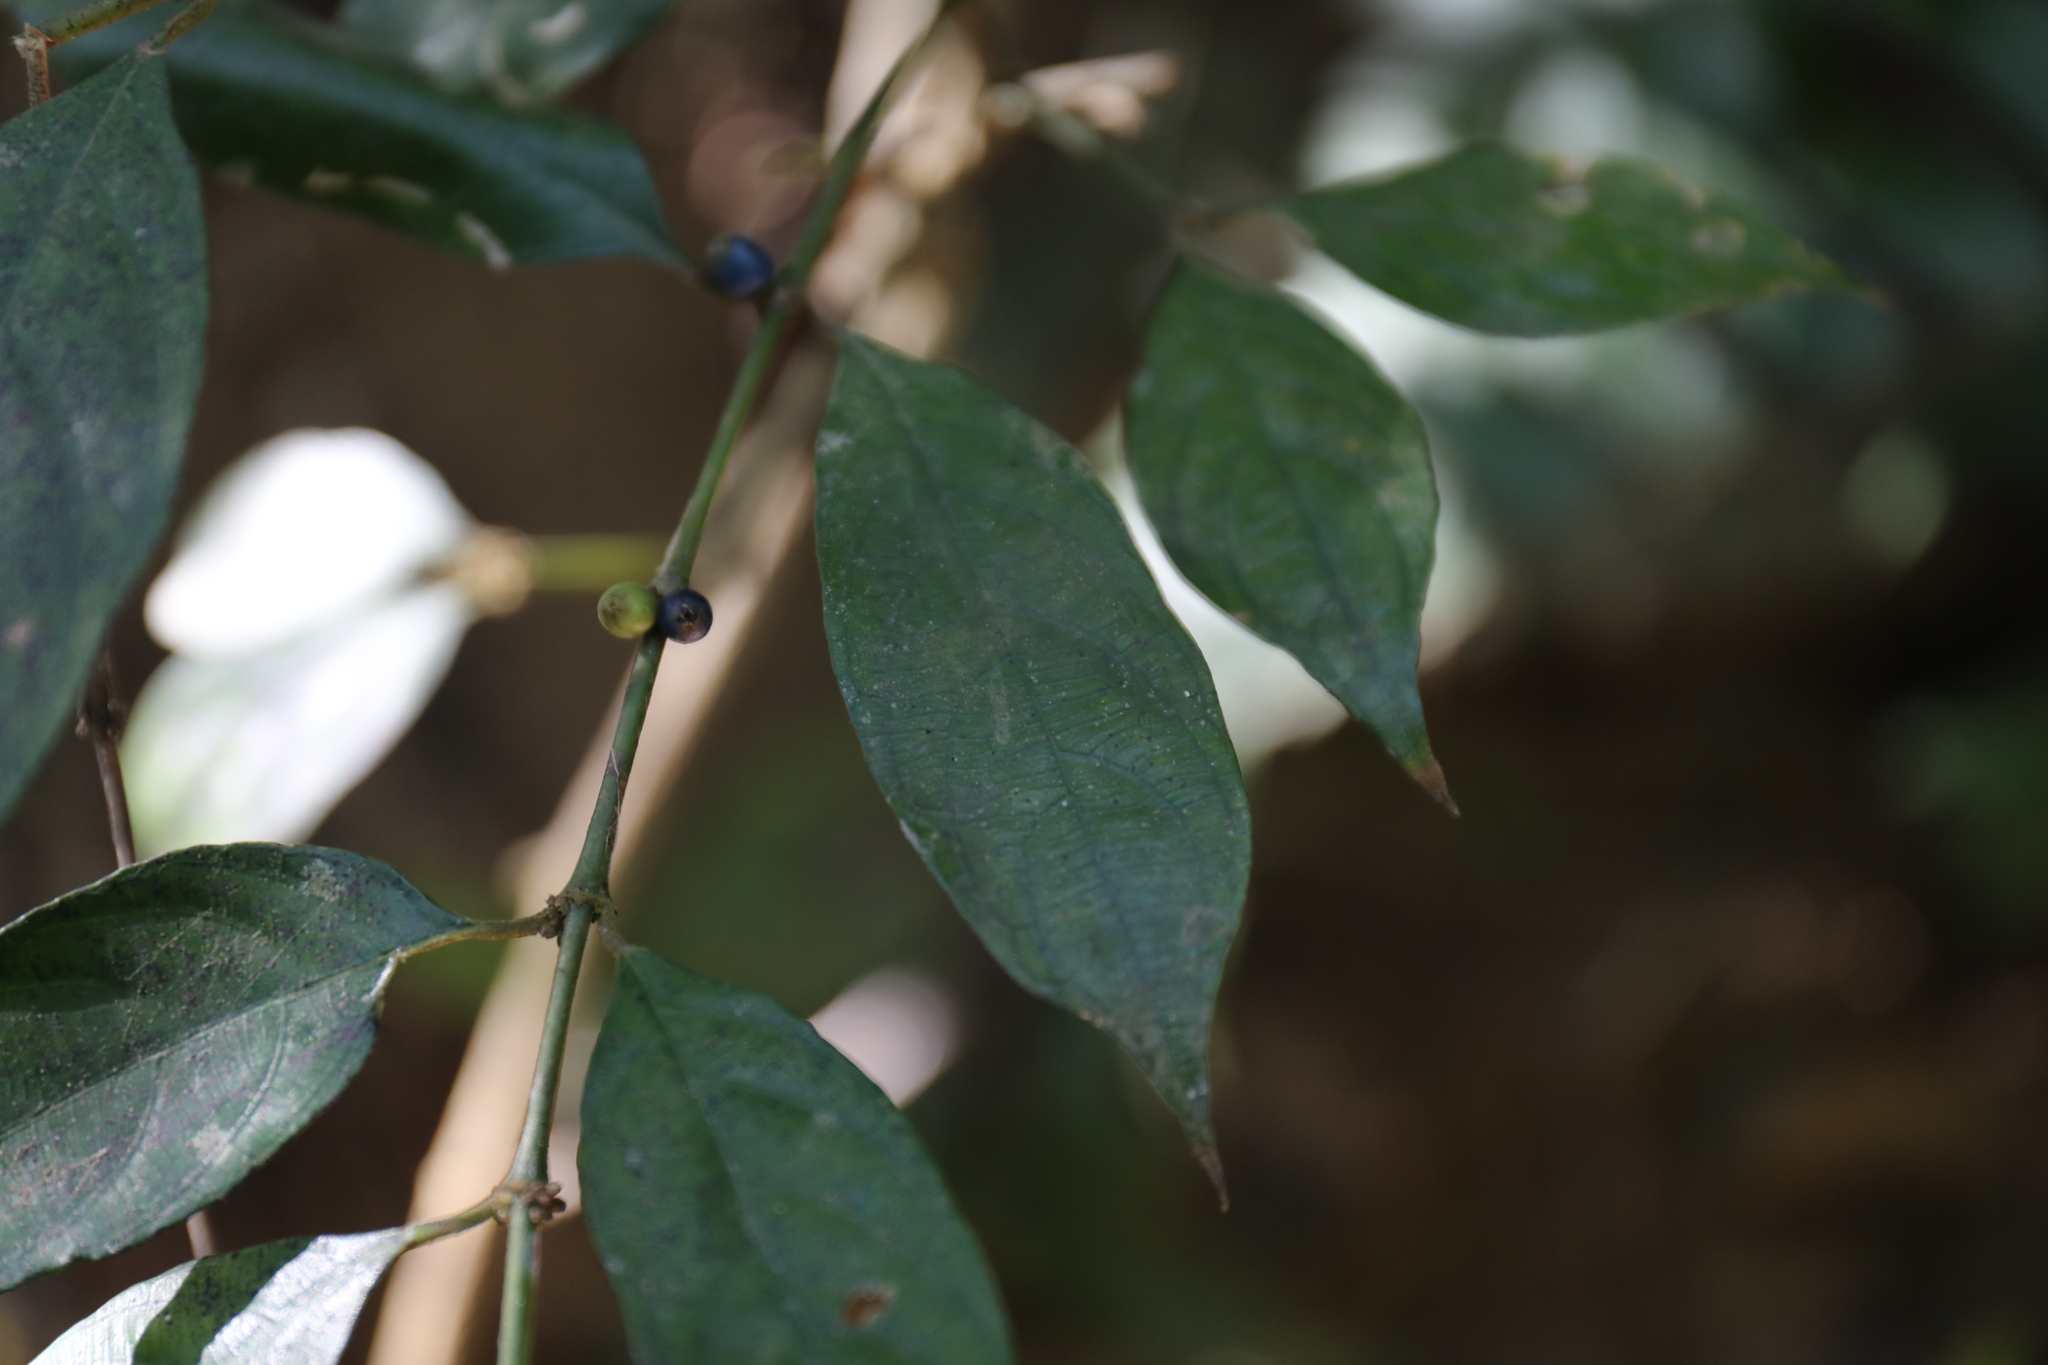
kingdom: Plantae
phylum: Tracheophyta
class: Magnoliopsida
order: Gentianales
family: Rubiaceae
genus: Lasianthus
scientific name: Lasianthus fordii
